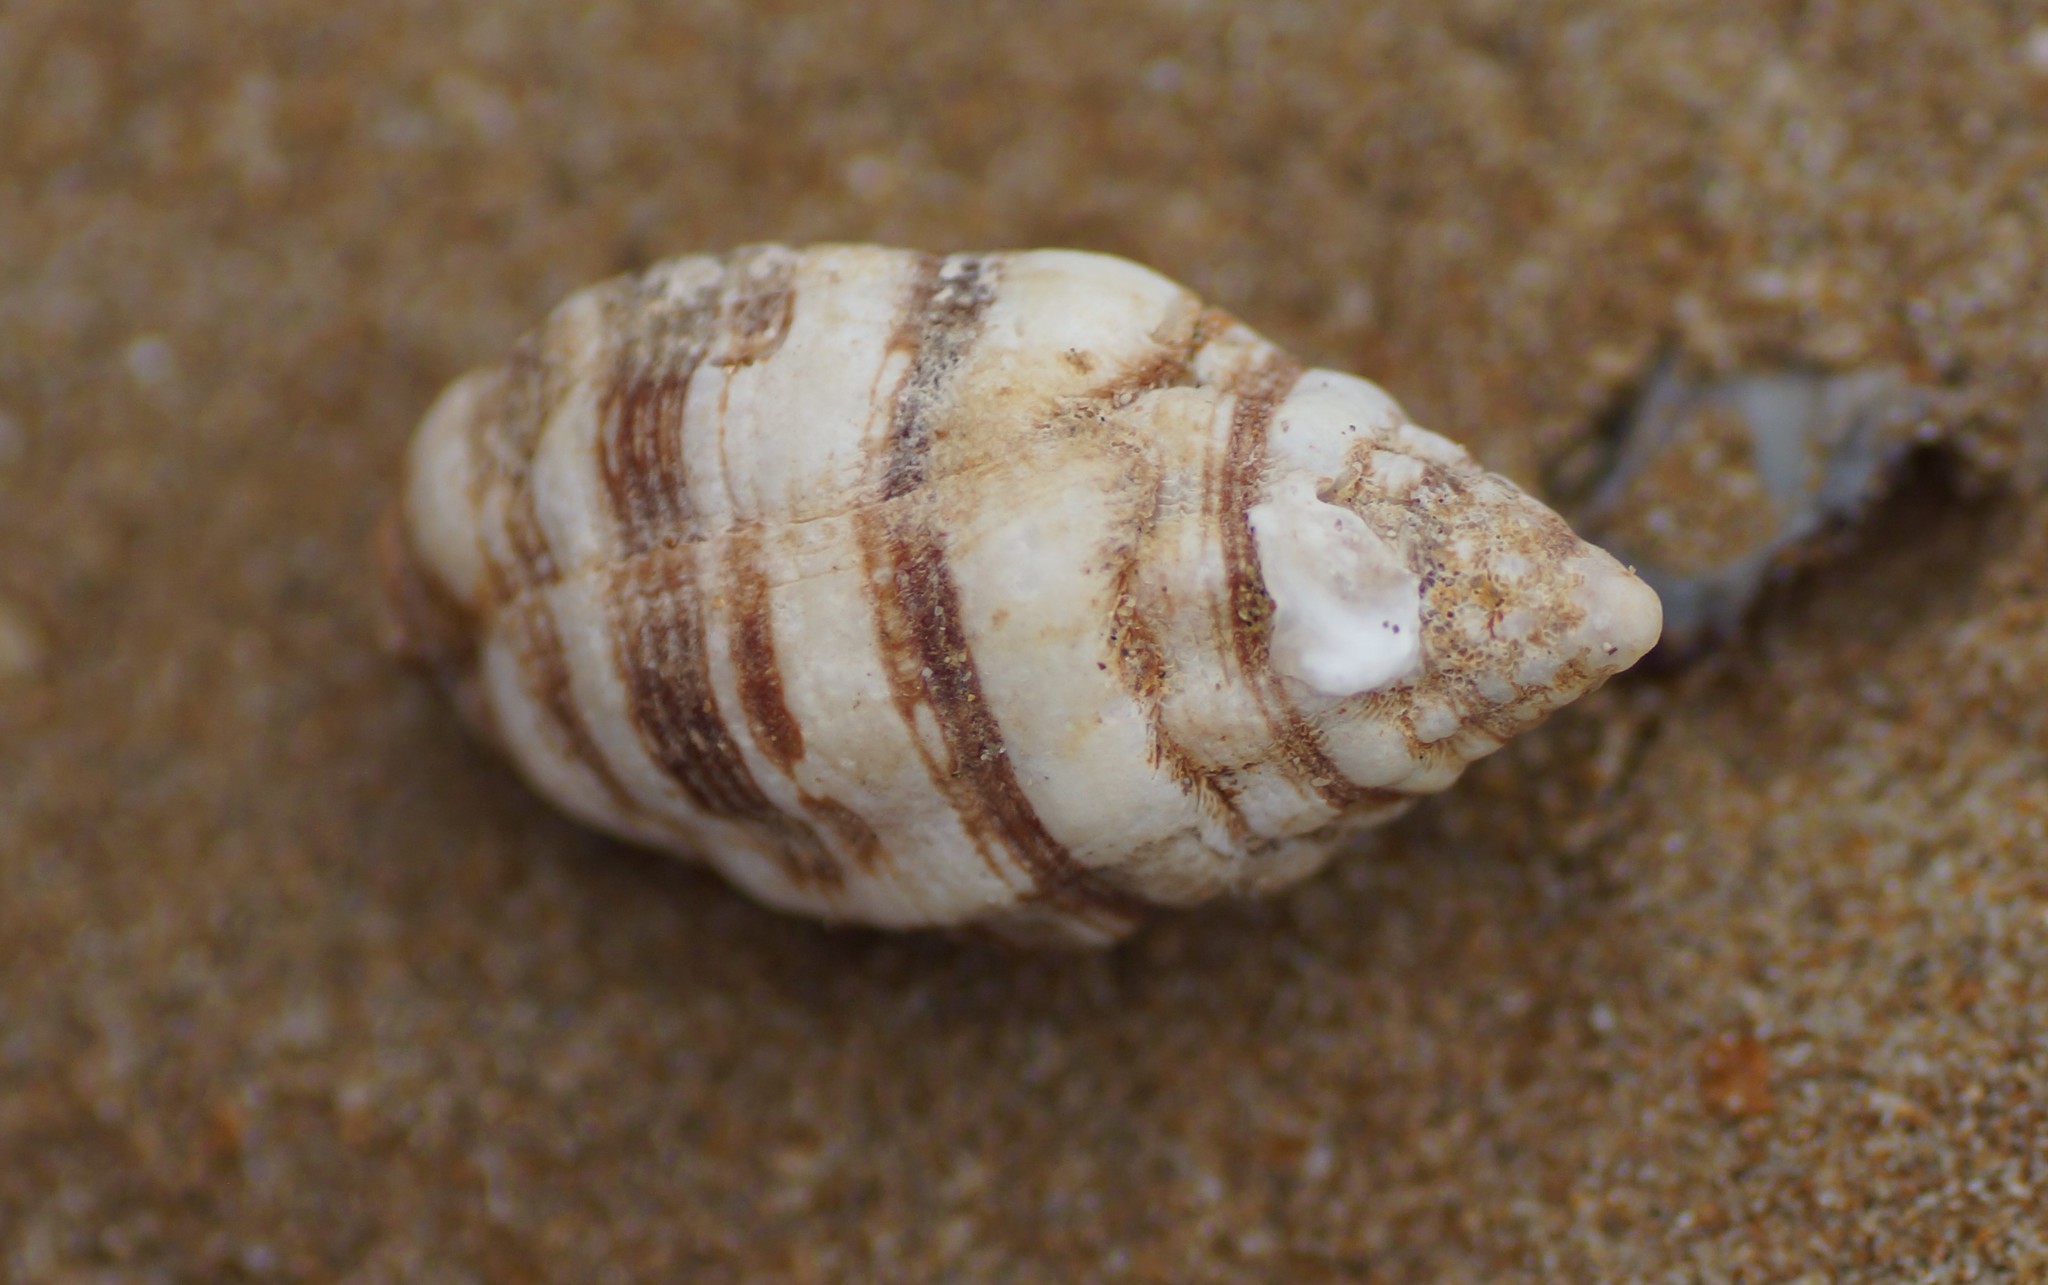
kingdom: Animalia
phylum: Mollusca
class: Gastropoda
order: Neogastropoda
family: Muricidae
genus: Cronia
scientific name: Cronia aurantiaca
